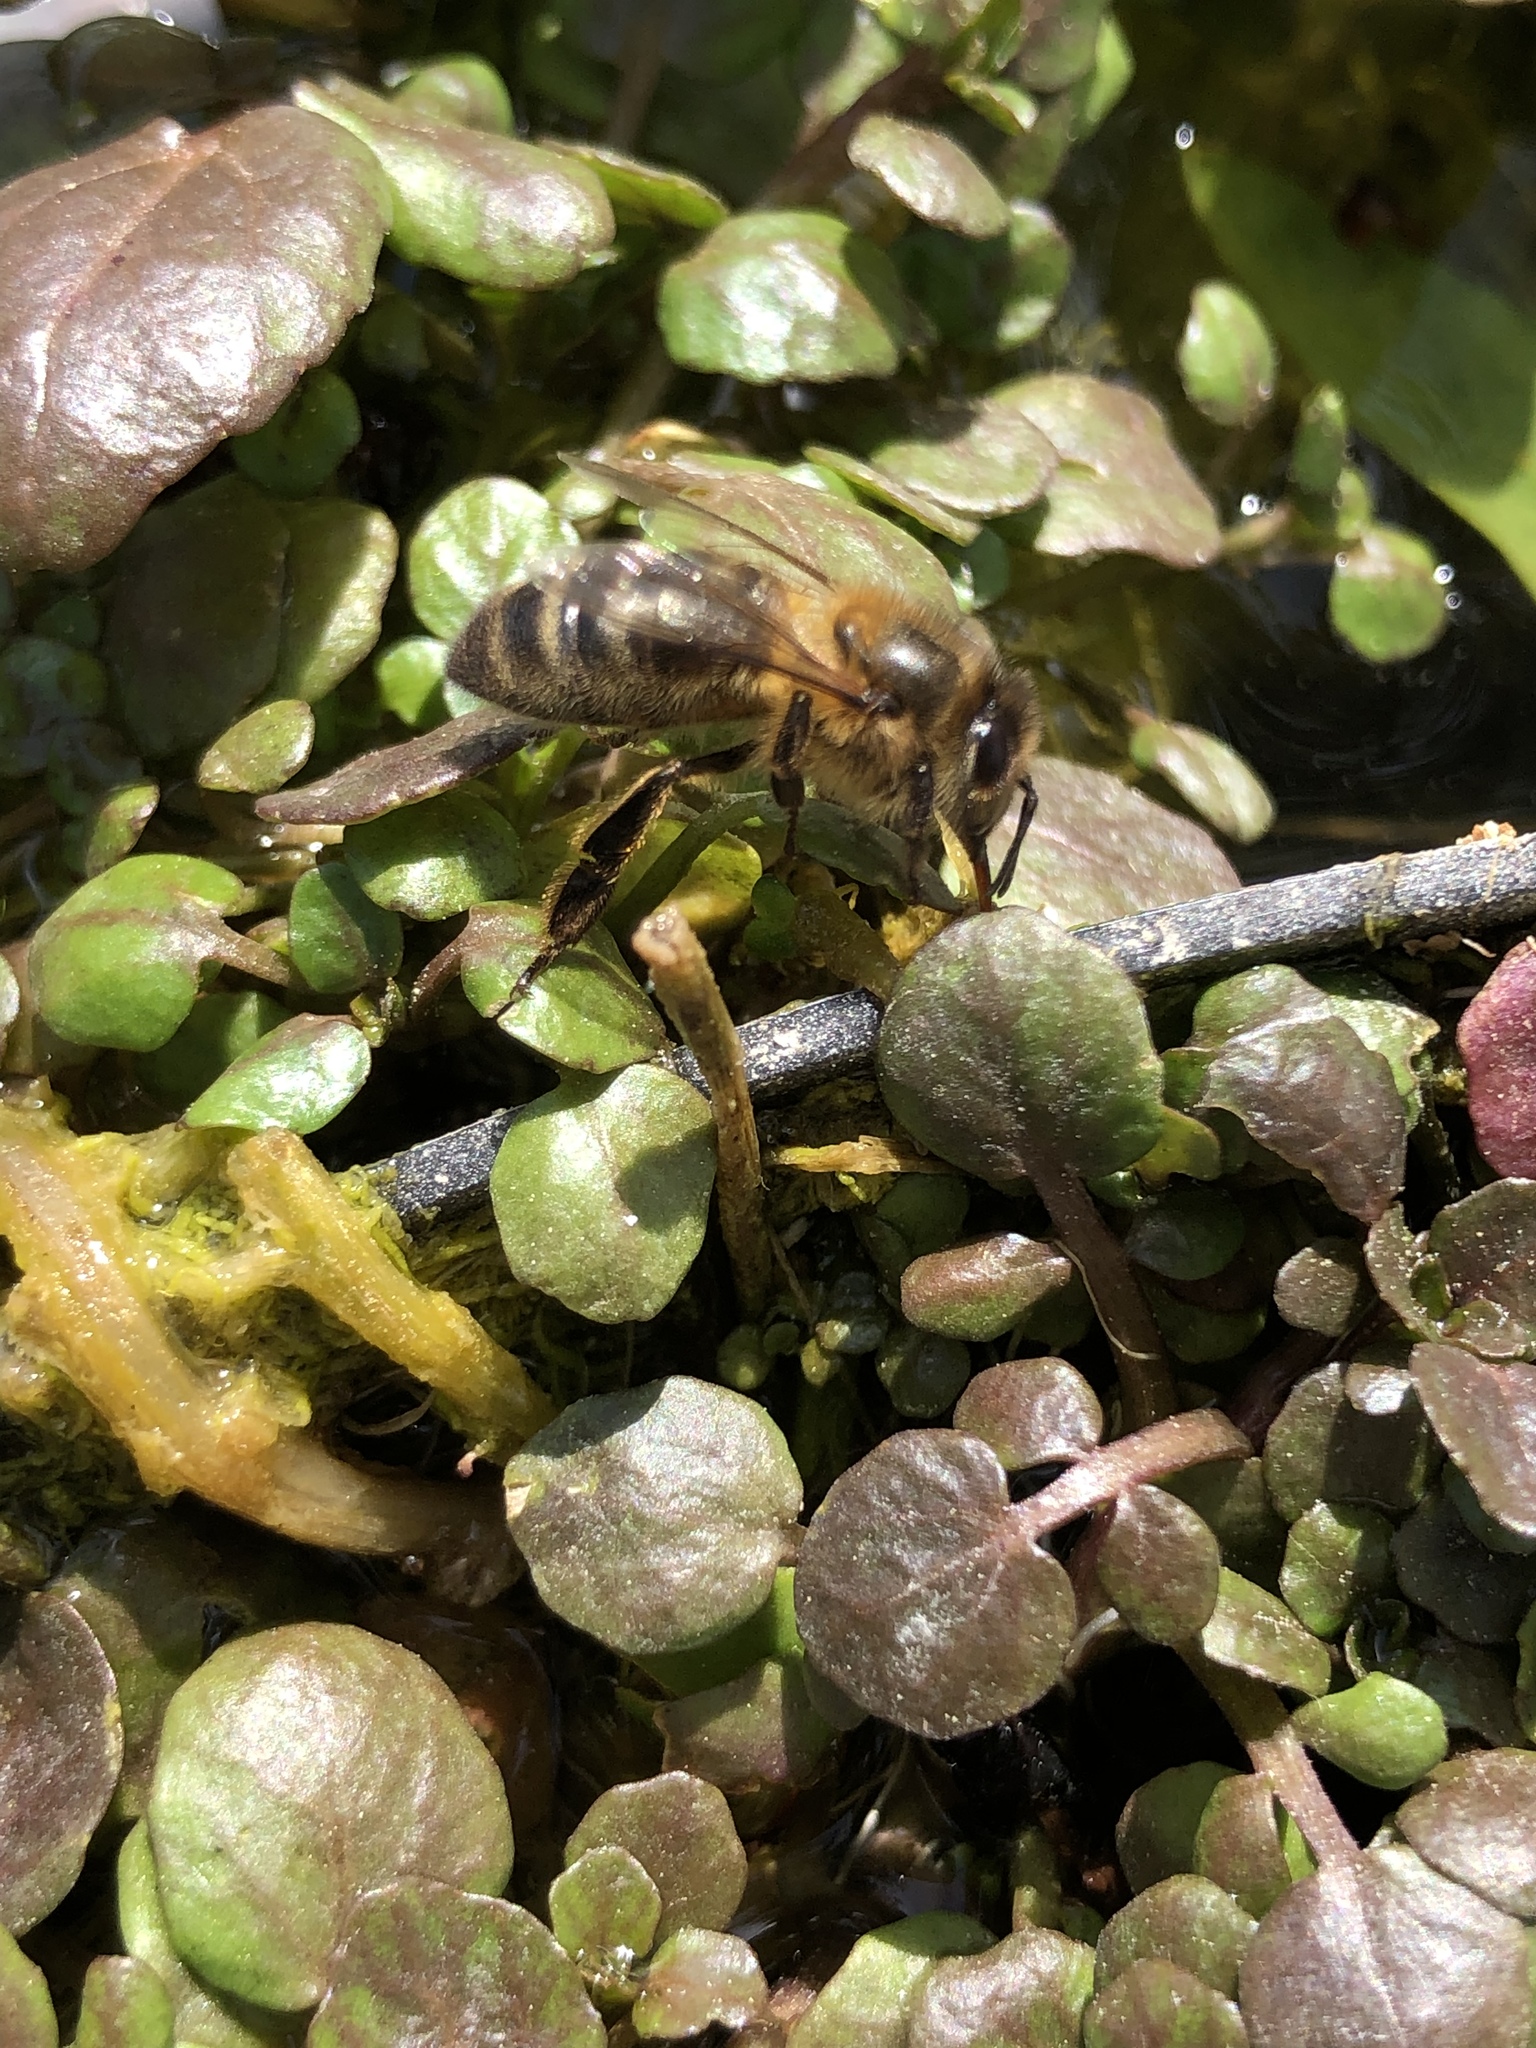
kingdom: Animalia
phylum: Arthropoda
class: Insecta
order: Hymenoptera
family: Apidae
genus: Apis
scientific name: Apis mellifera
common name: Honey bee
